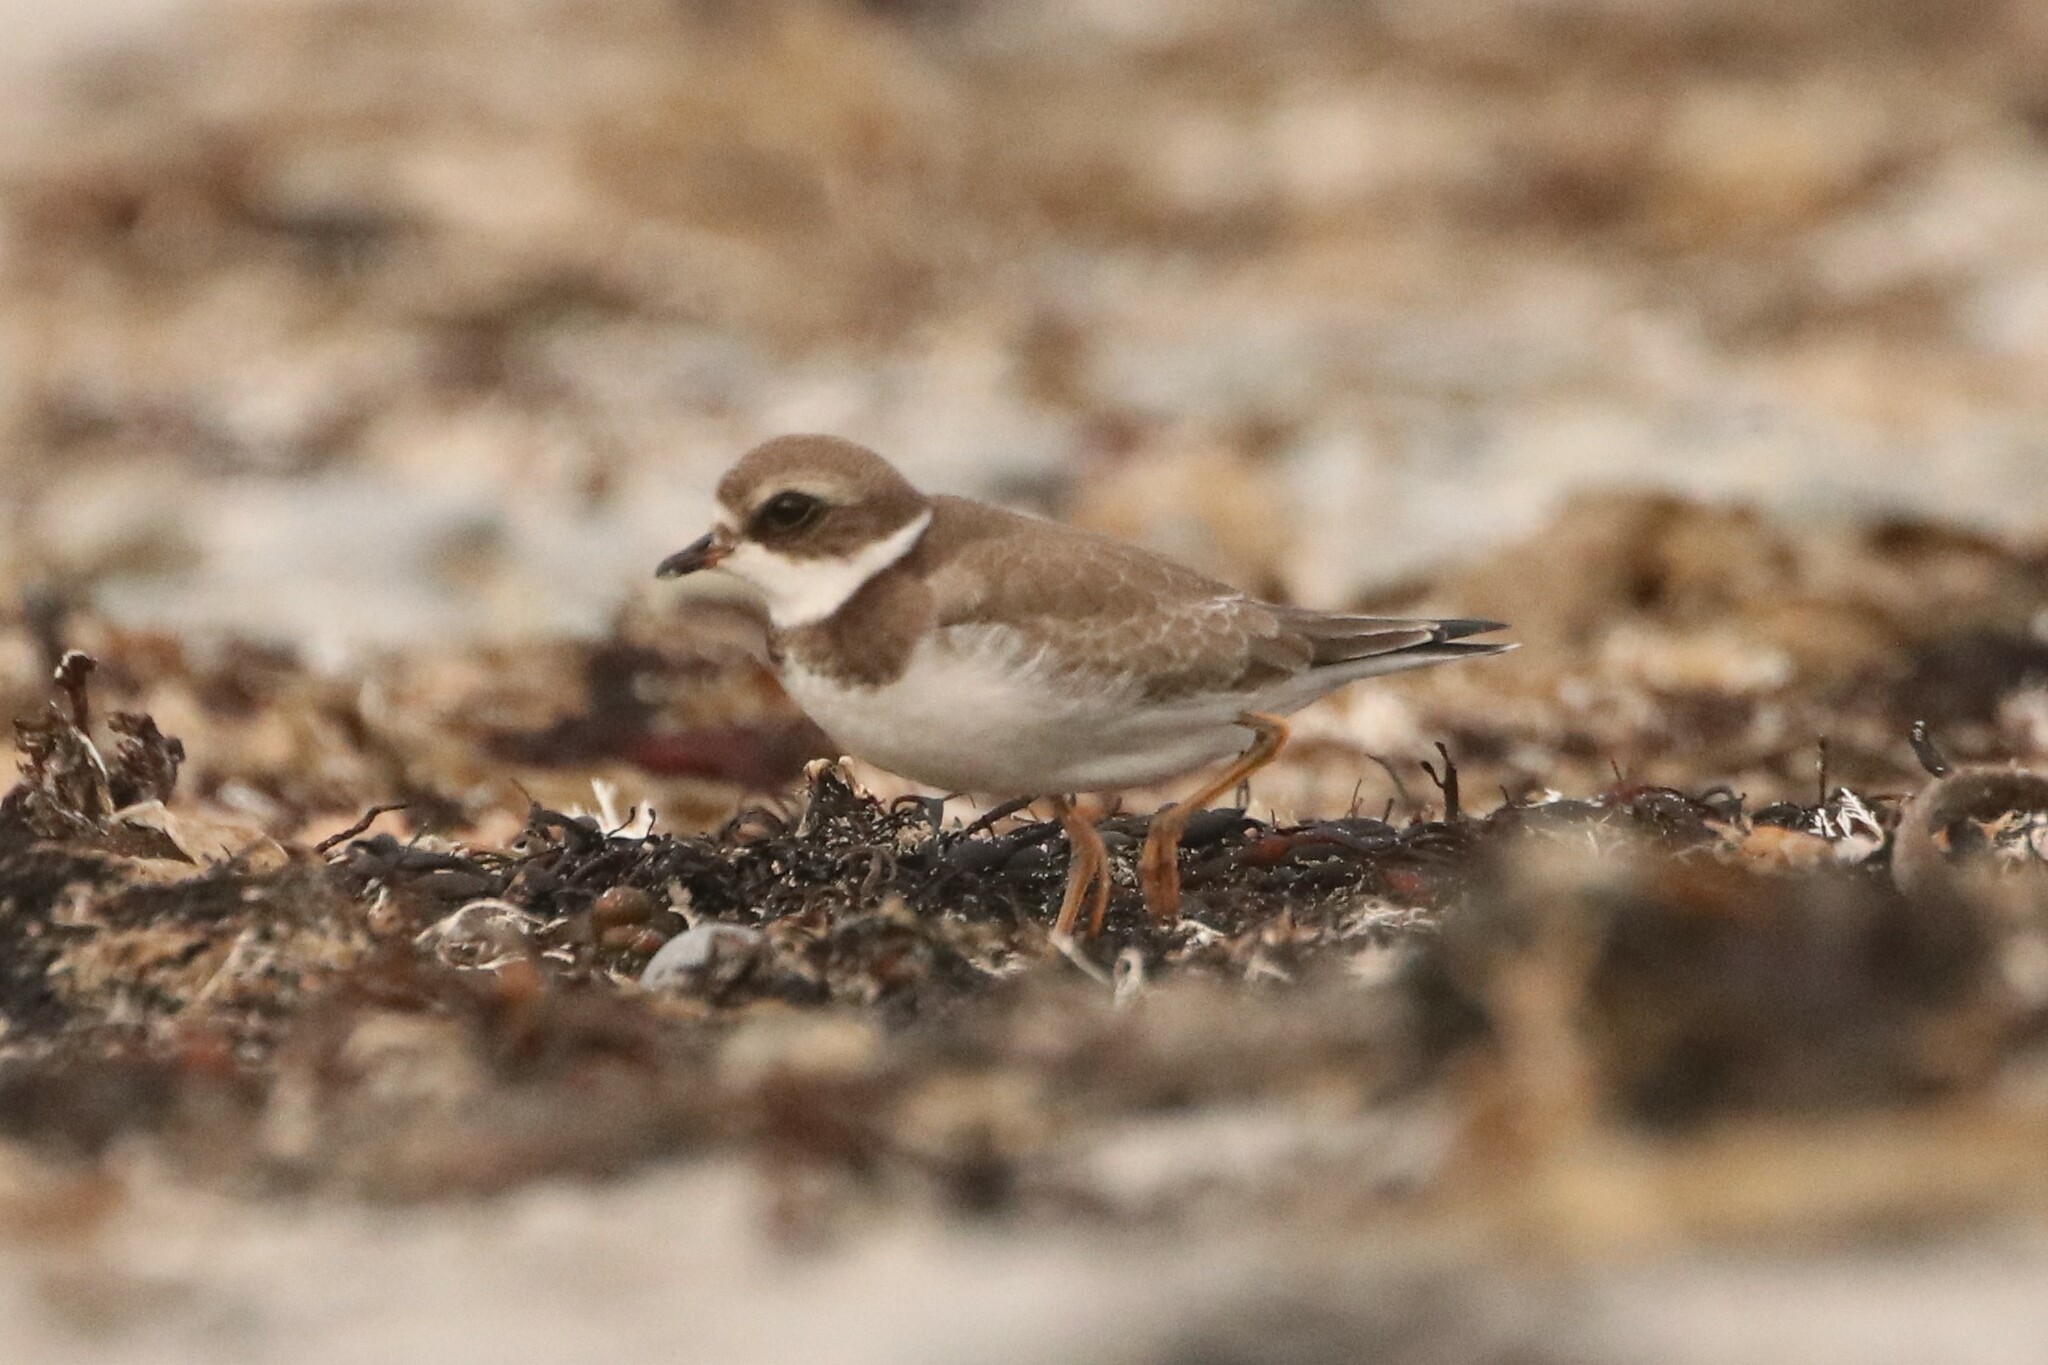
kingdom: Animalia
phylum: Chordata
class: Aves
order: Charadriiformes
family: Charadriidae
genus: Charadrius
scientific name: Charadrius semipalmatus
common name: Semipalmated plover
